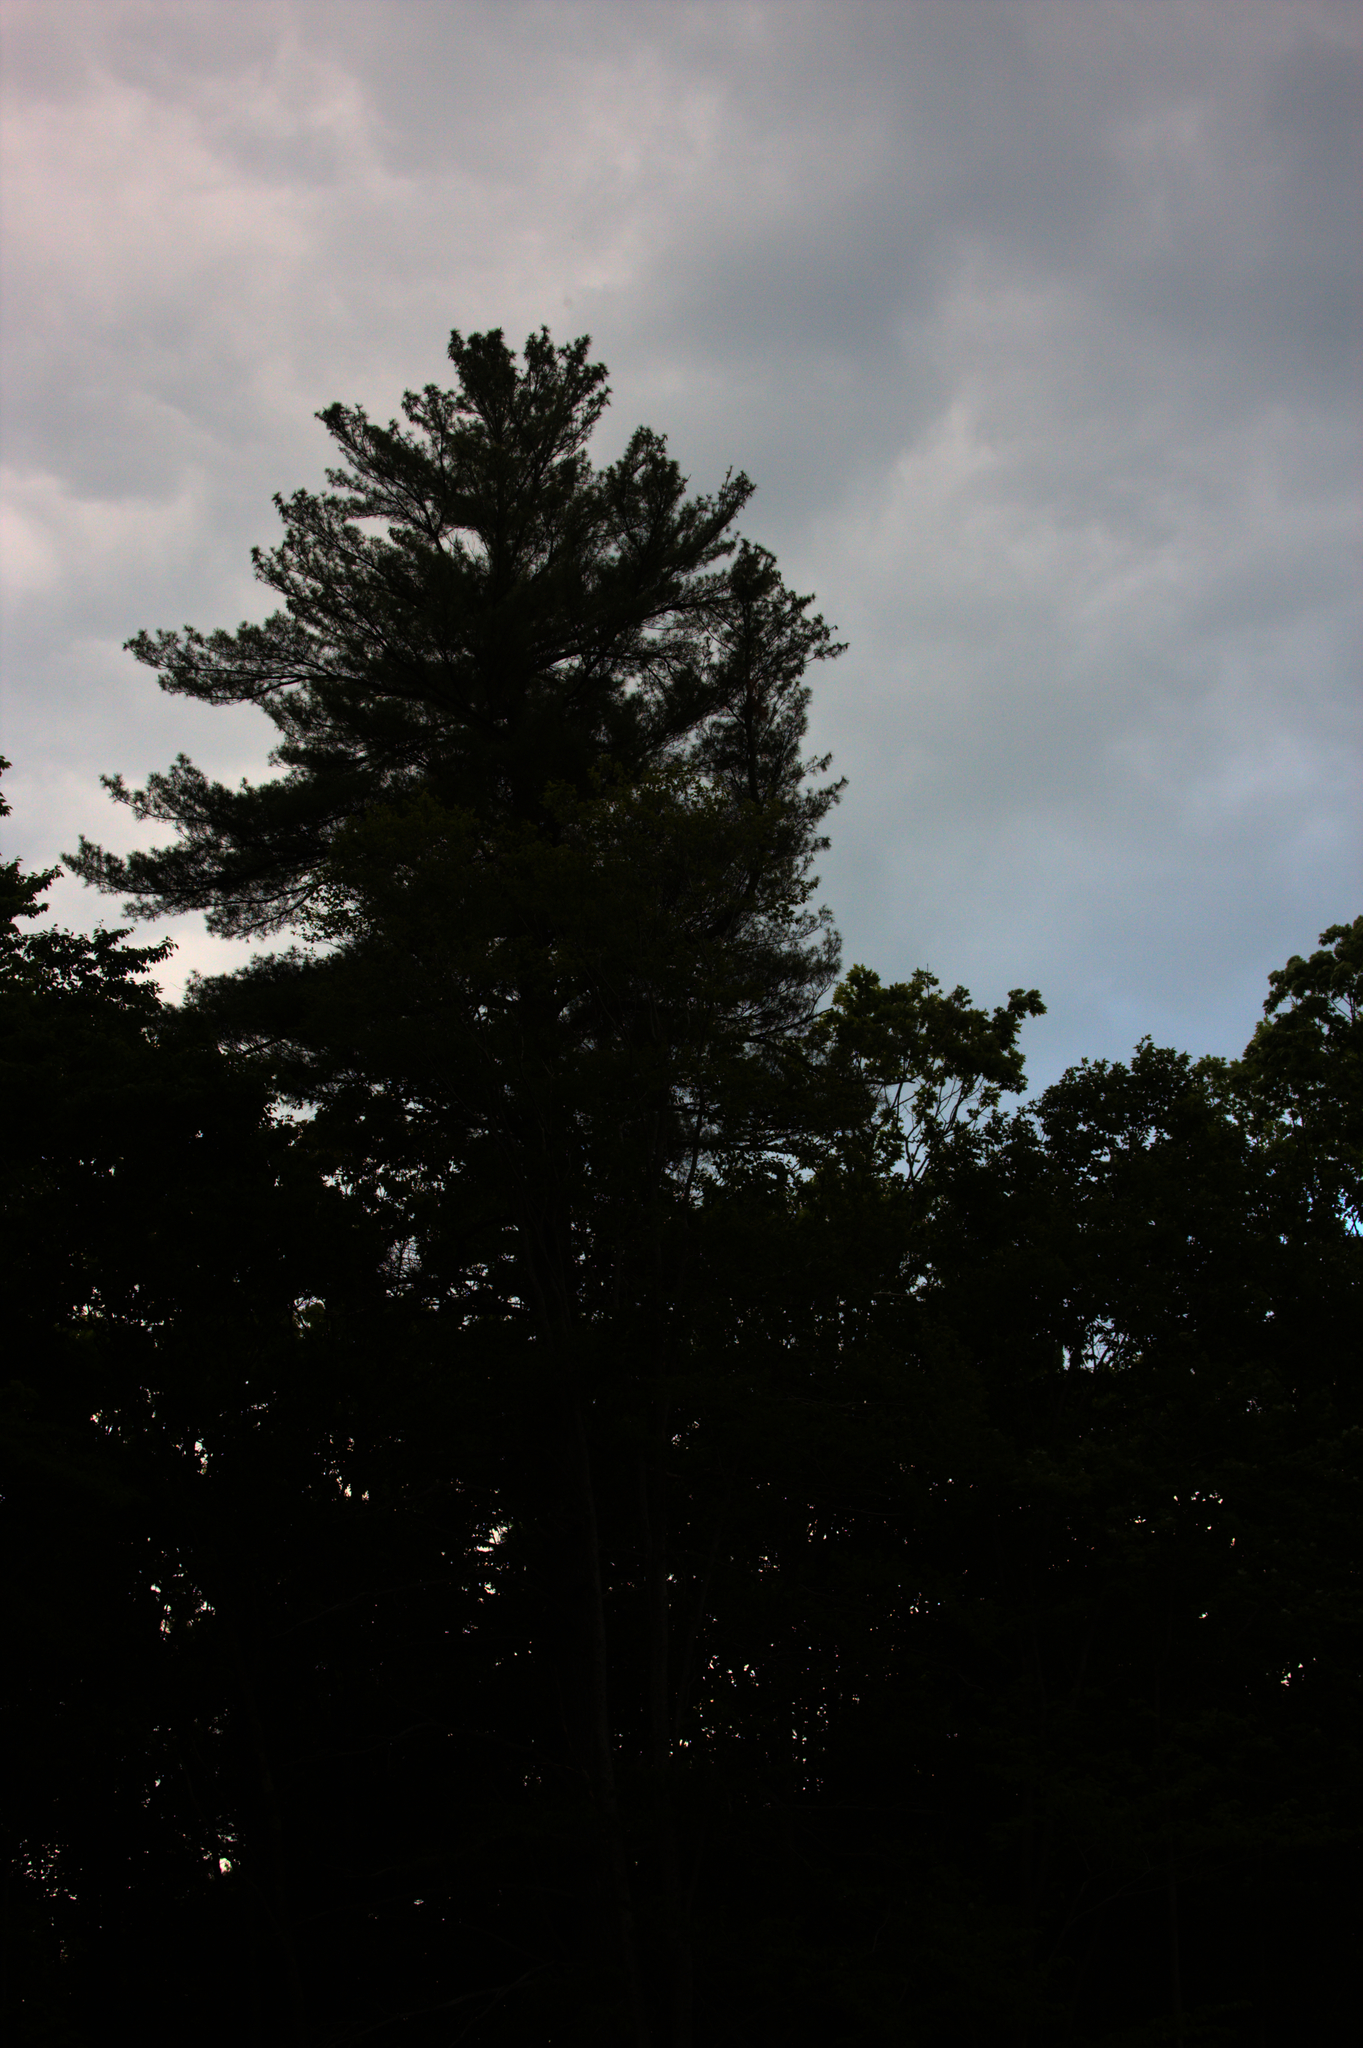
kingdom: Plantae
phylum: Tracheophyta
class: Pinopsida
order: Pinales
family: Pinaceae
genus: Pinus
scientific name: Pinus strobus
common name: Weymouth pine
